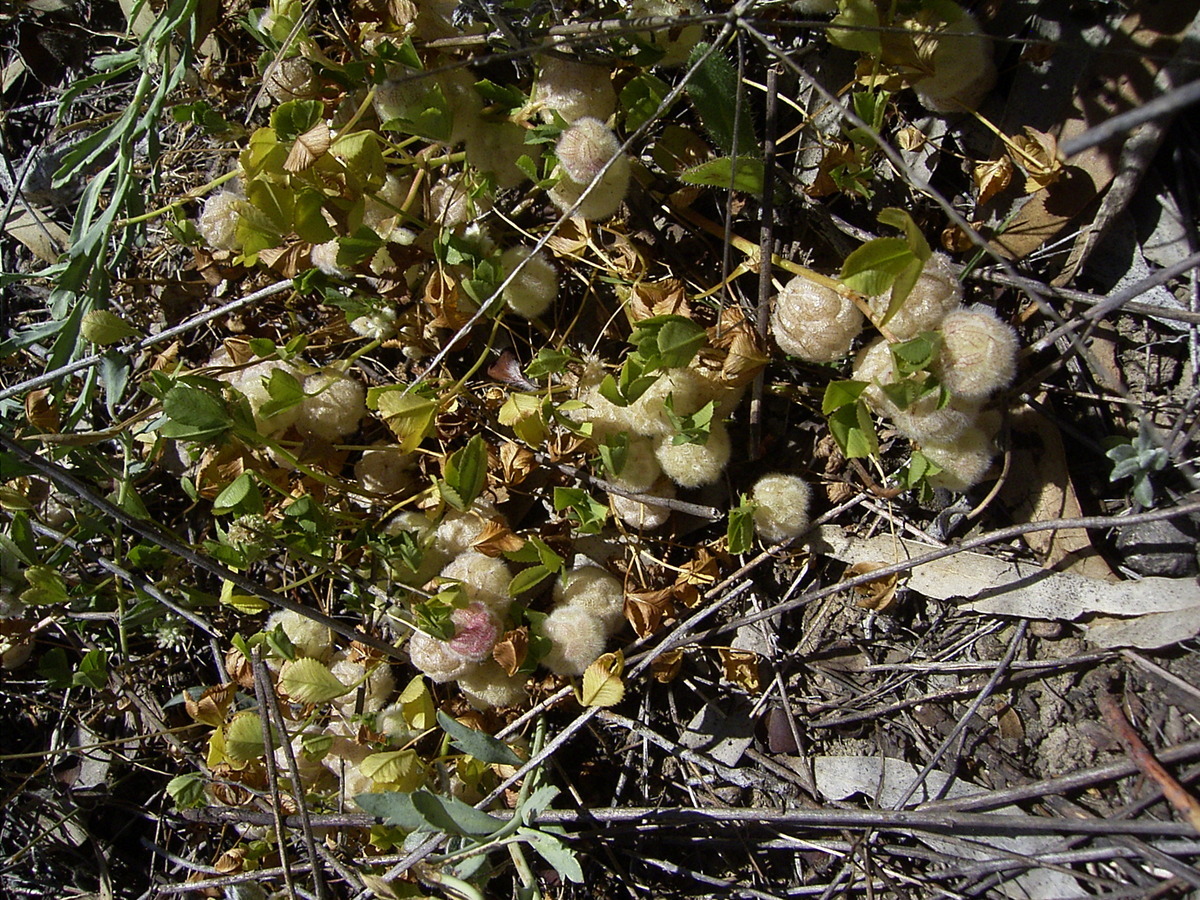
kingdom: Plantae
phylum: Tracheophyta
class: Magnoliopsida
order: Fabales
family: Fabaceae
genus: Trifolium
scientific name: Trifolium tomentosum
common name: Woolly clover
